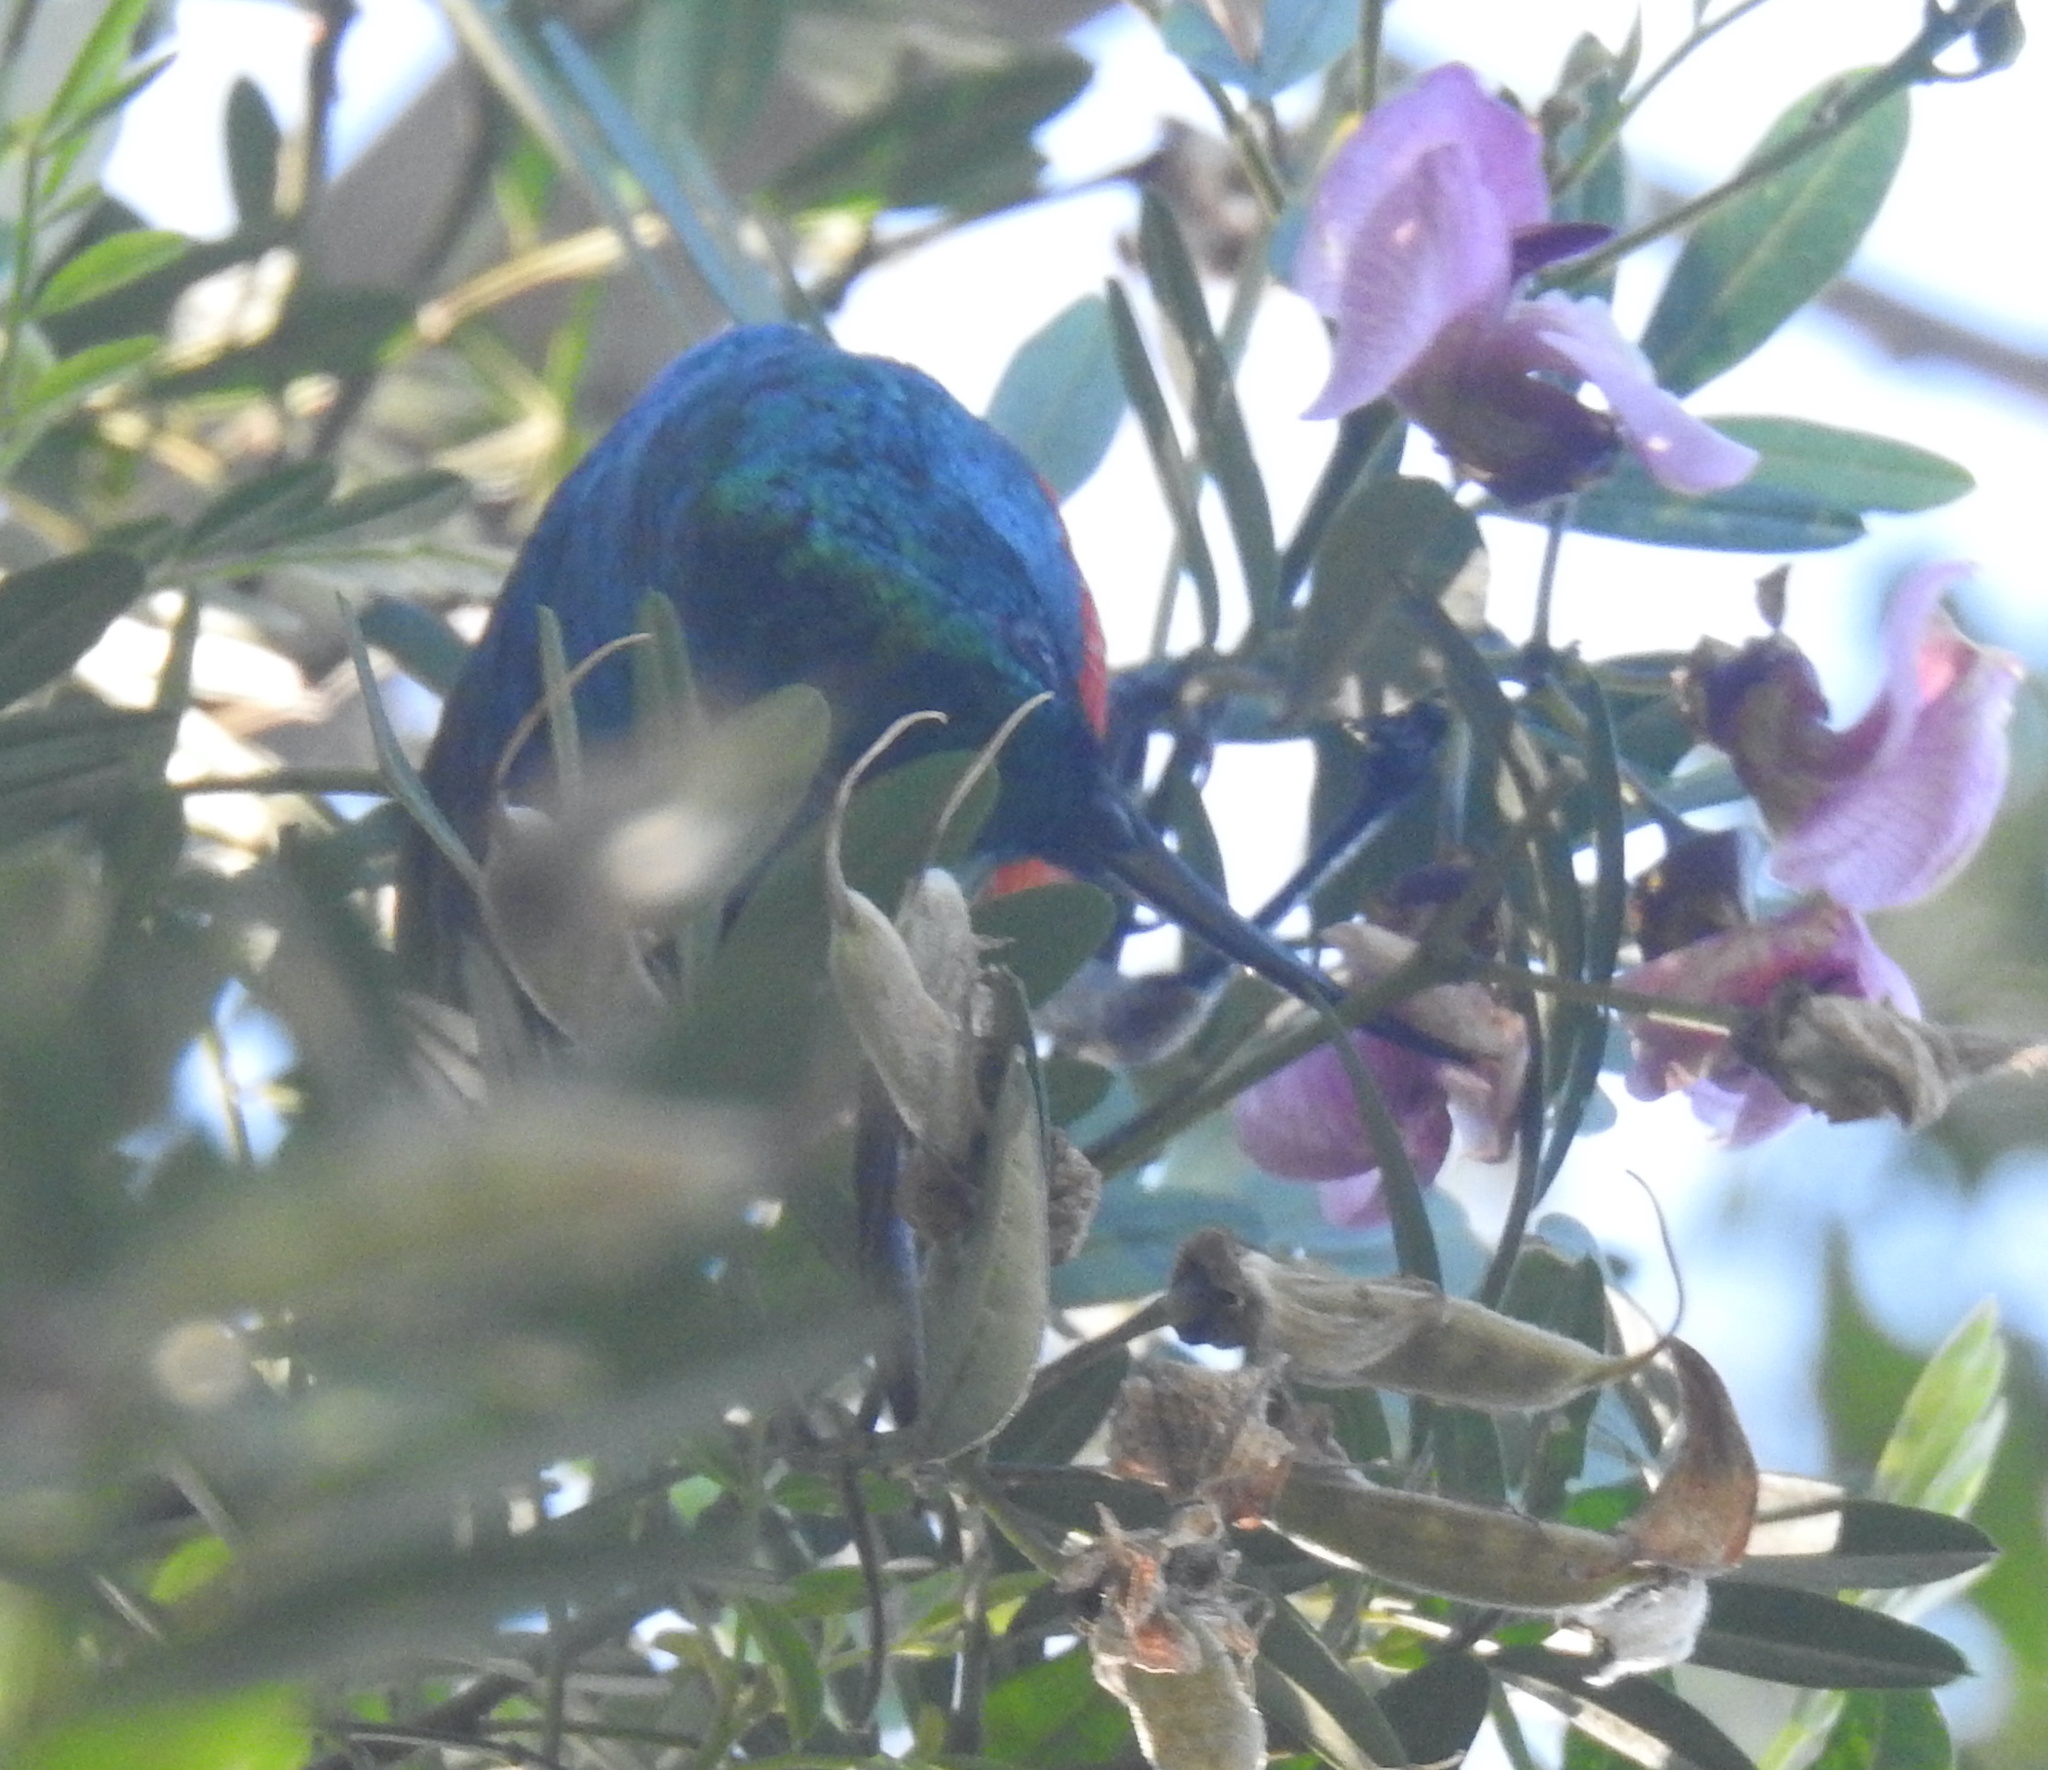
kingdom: Animalia
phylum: Chordata
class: Aves
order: Passeriformes
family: Nectariniidae
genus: Cinnyris
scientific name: Cinnyris chalybeus
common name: Southern double-collared sunbird
